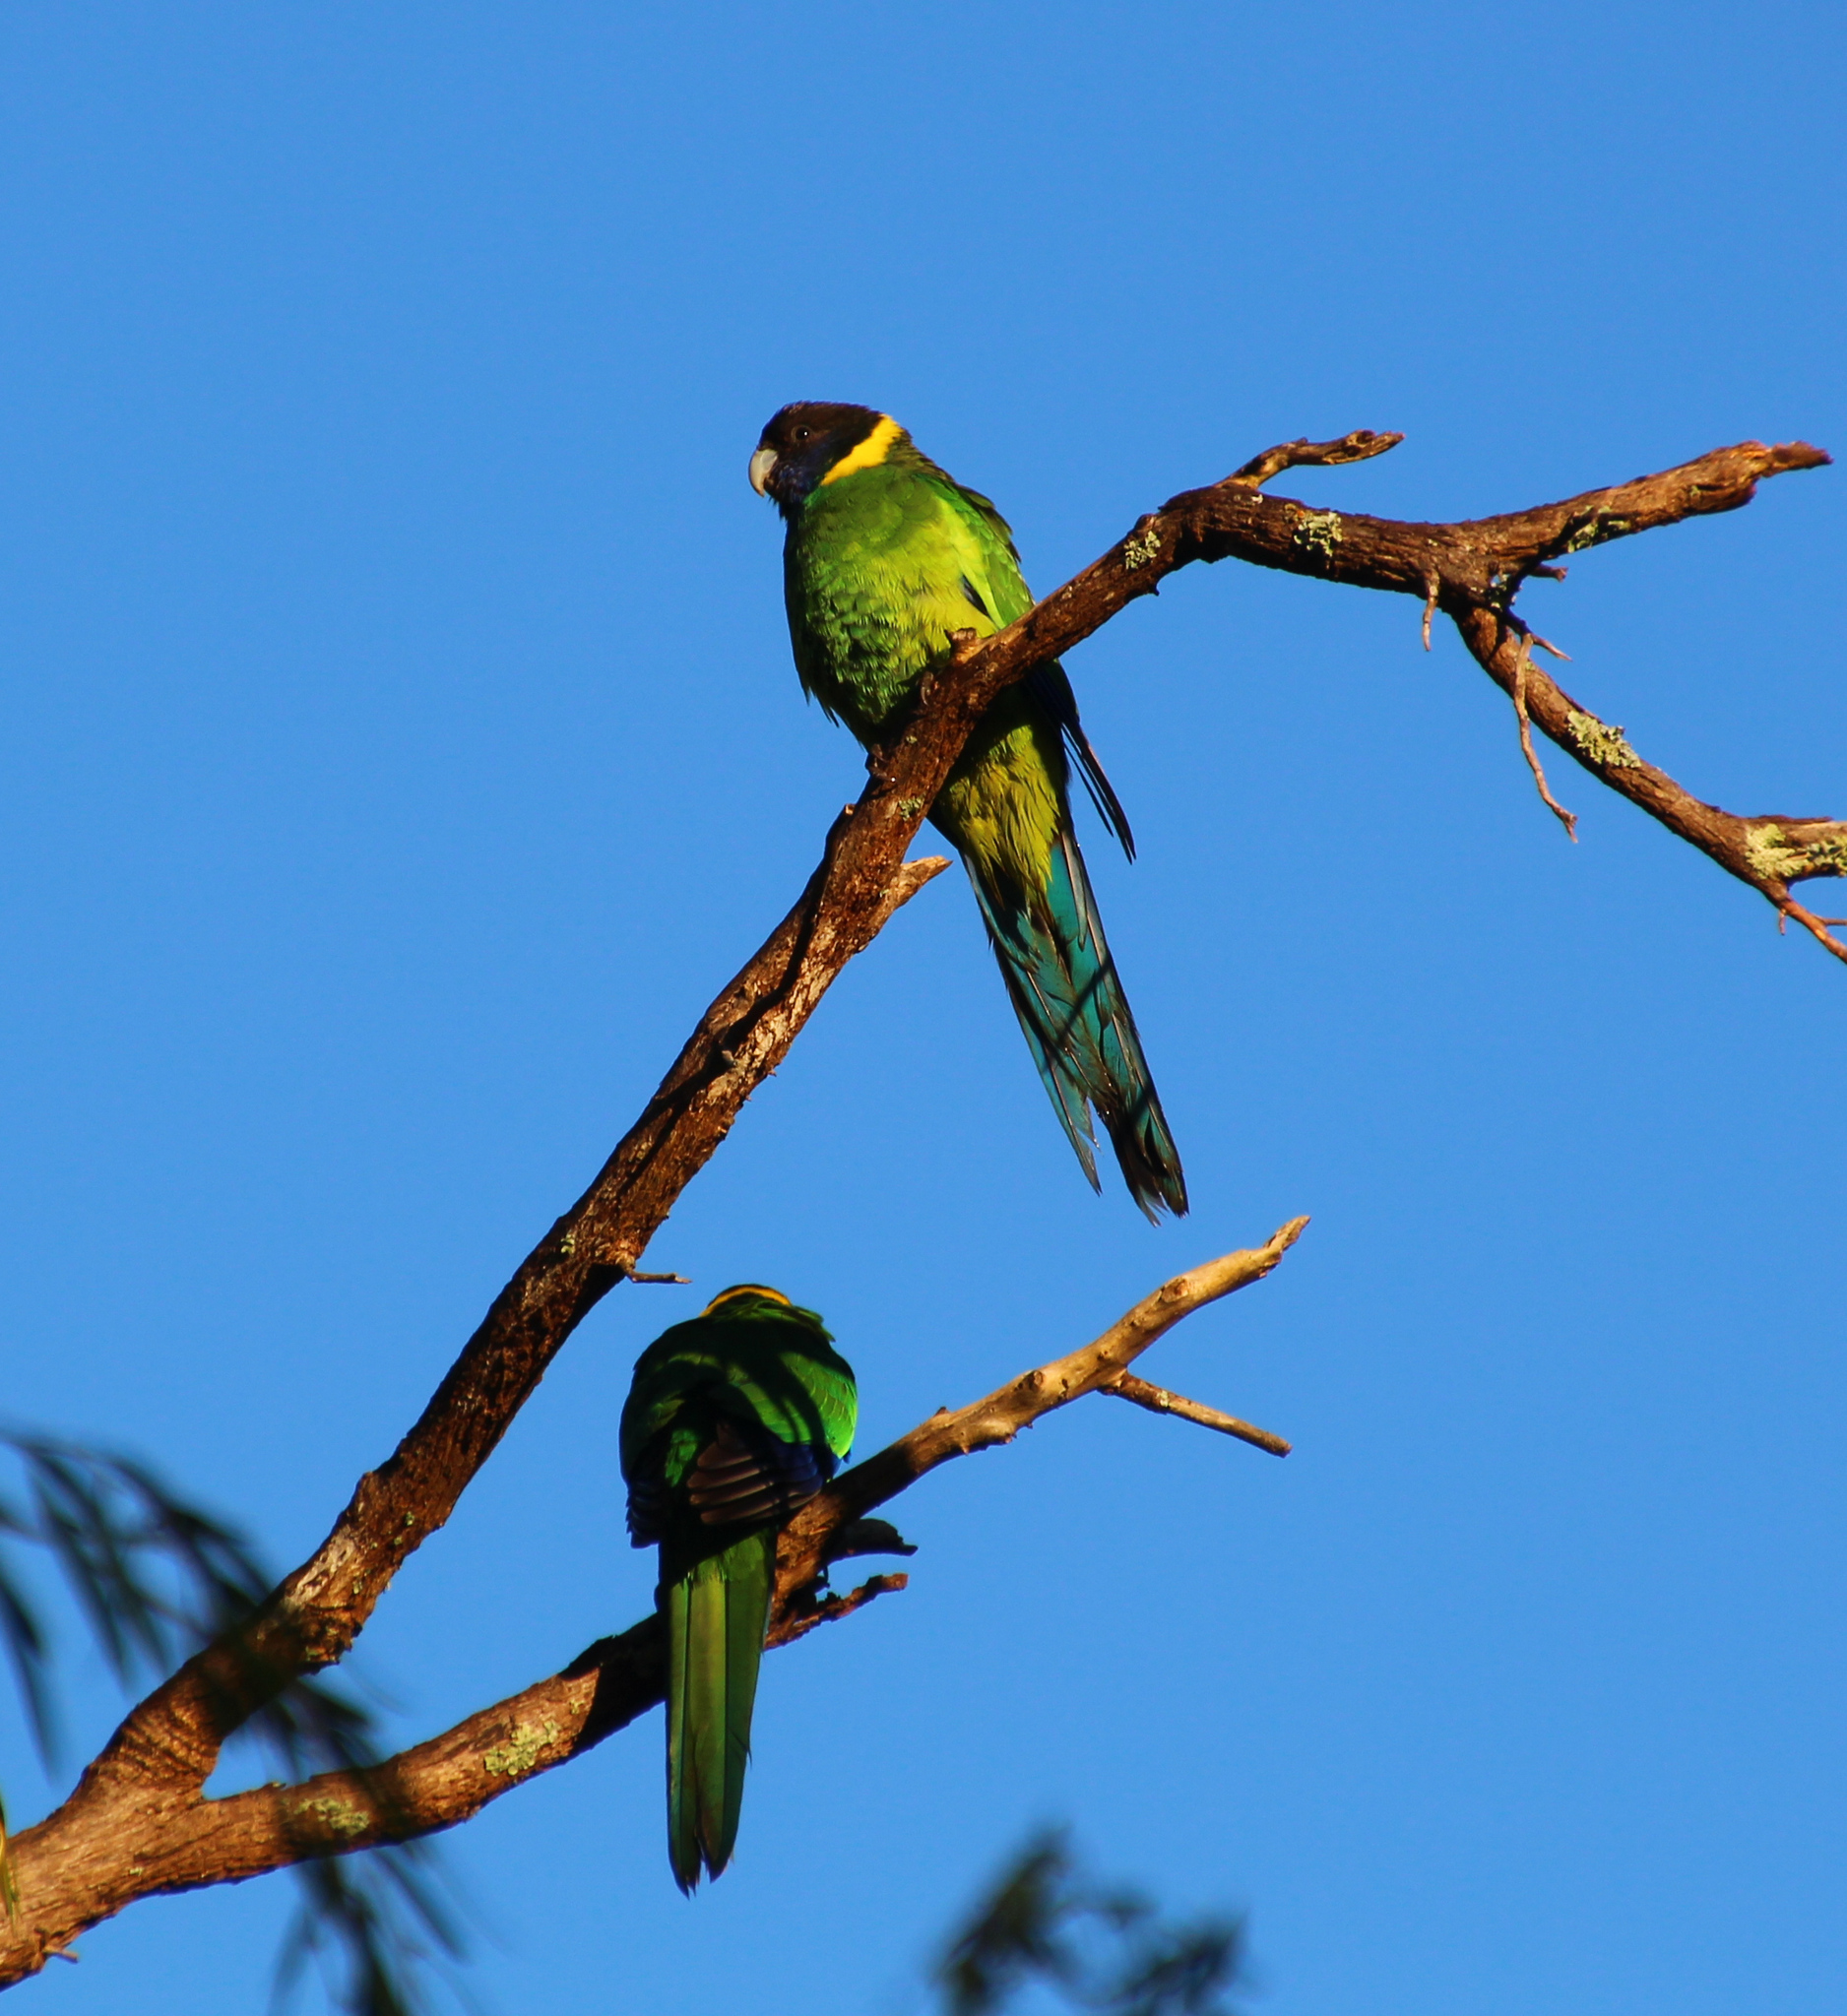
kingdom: Animalia
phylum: Chordata
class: Aves
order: Psittaciformes
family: Psittacidae
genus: Barnardius
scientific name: Barnardius zonarius
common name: Australian ringneck
